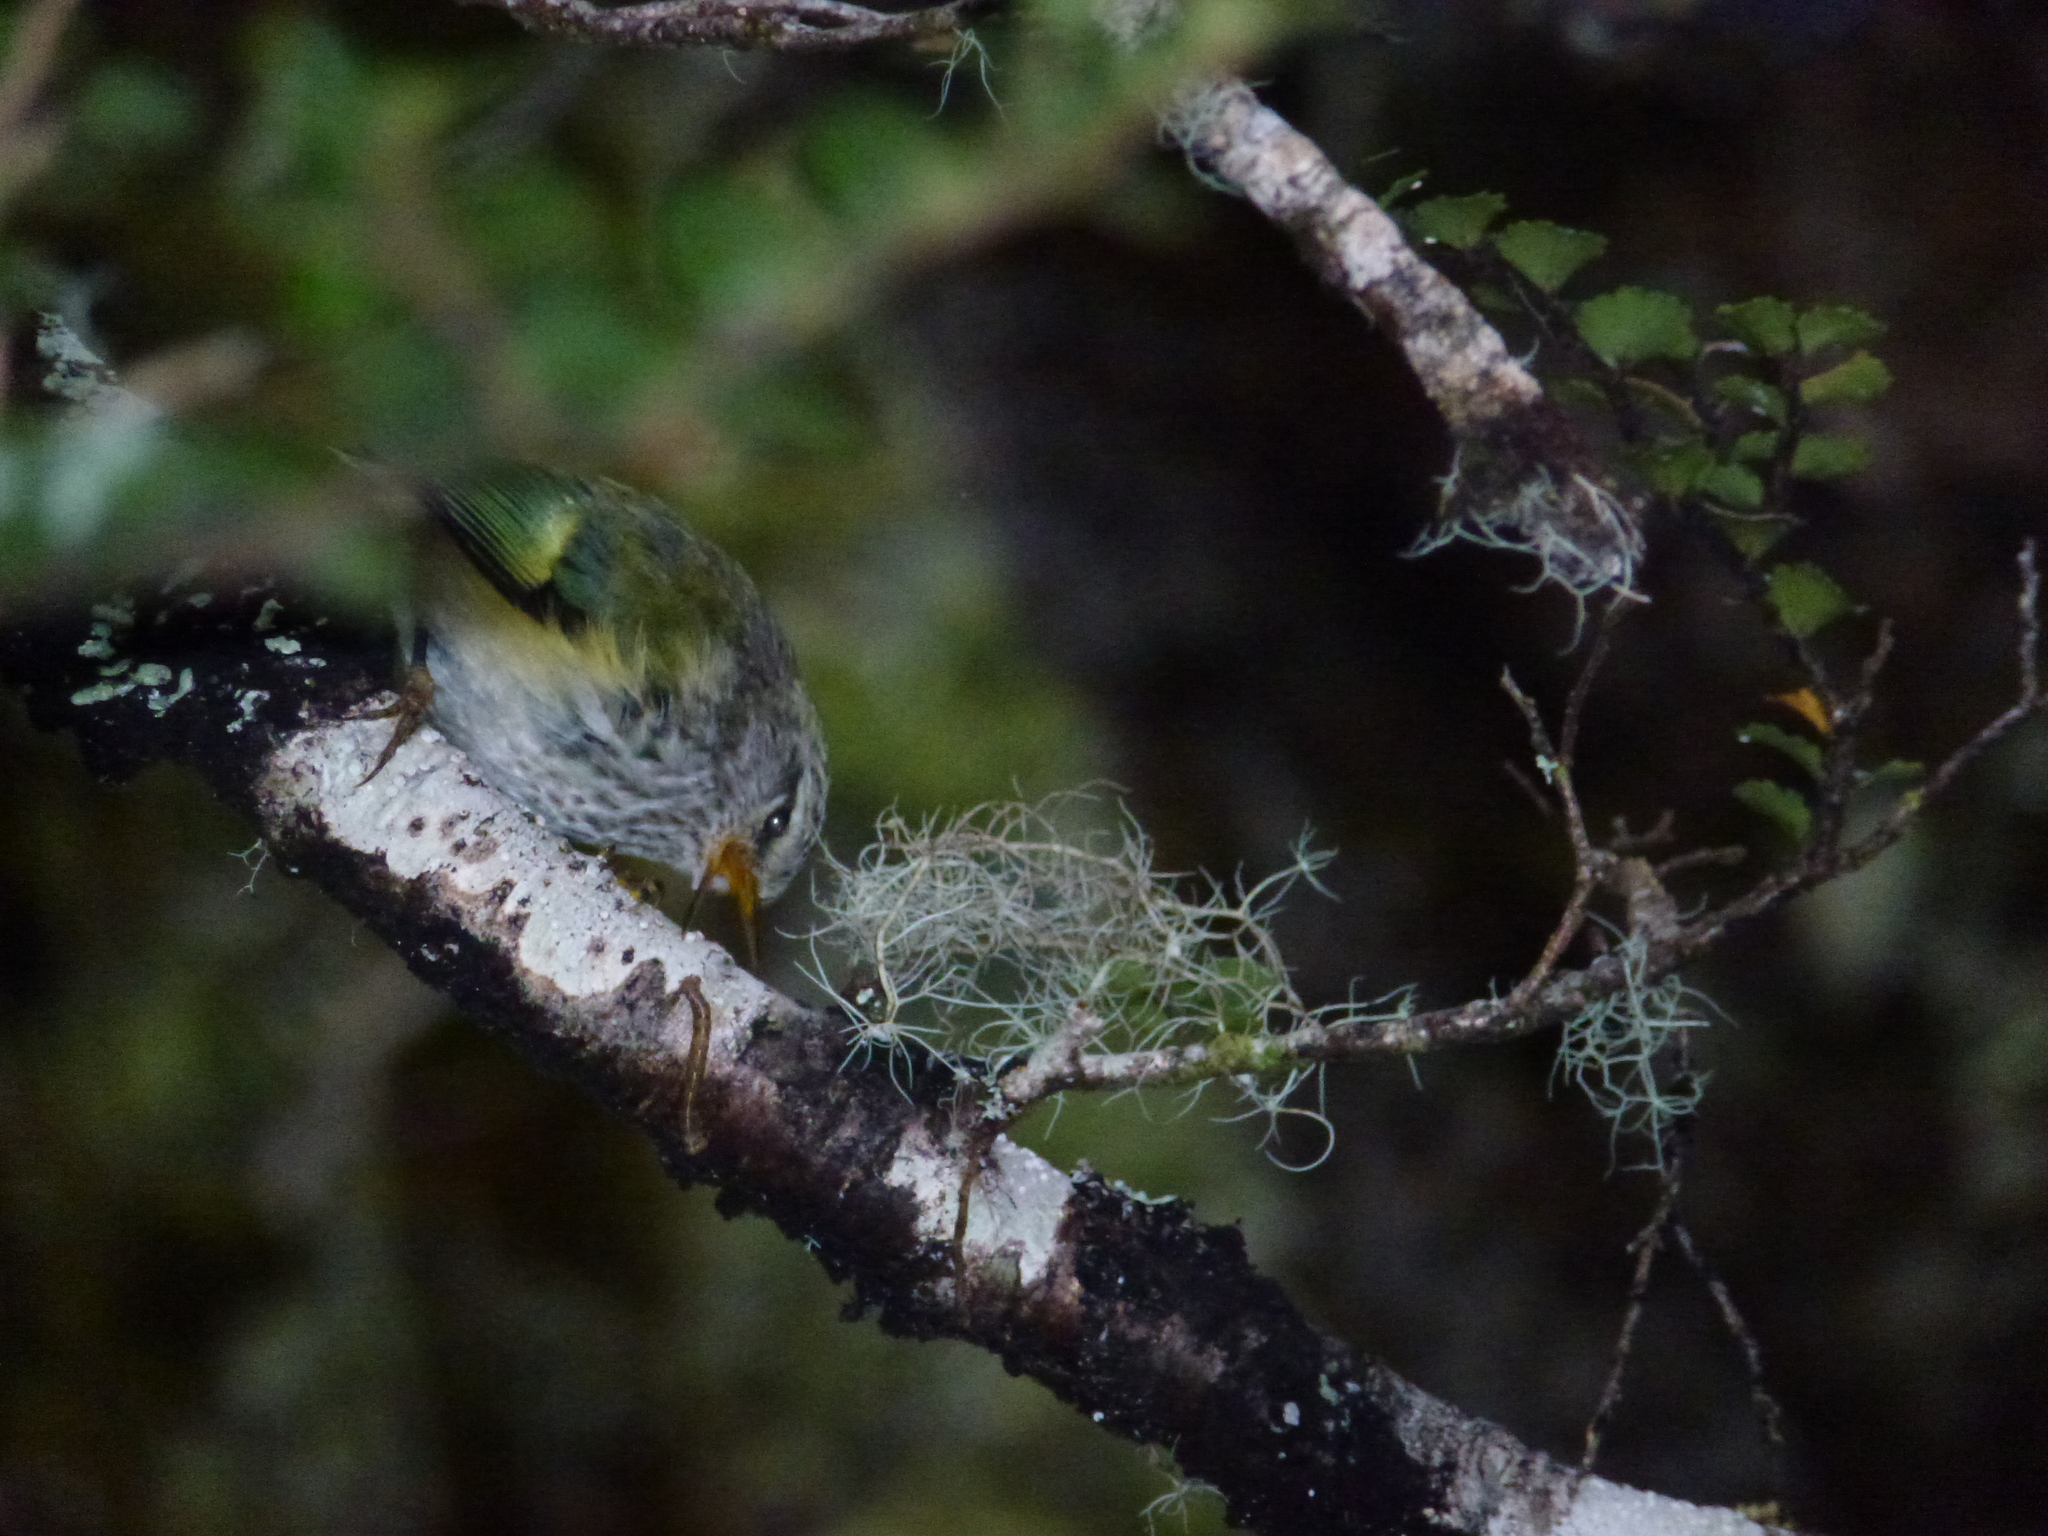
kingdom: Animalia
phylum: Chordata
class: Aves
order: Passeriformes
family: Acanthisittidae
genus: Acanthisitta
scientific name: Acanthisitta chloris
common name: Rifleman
